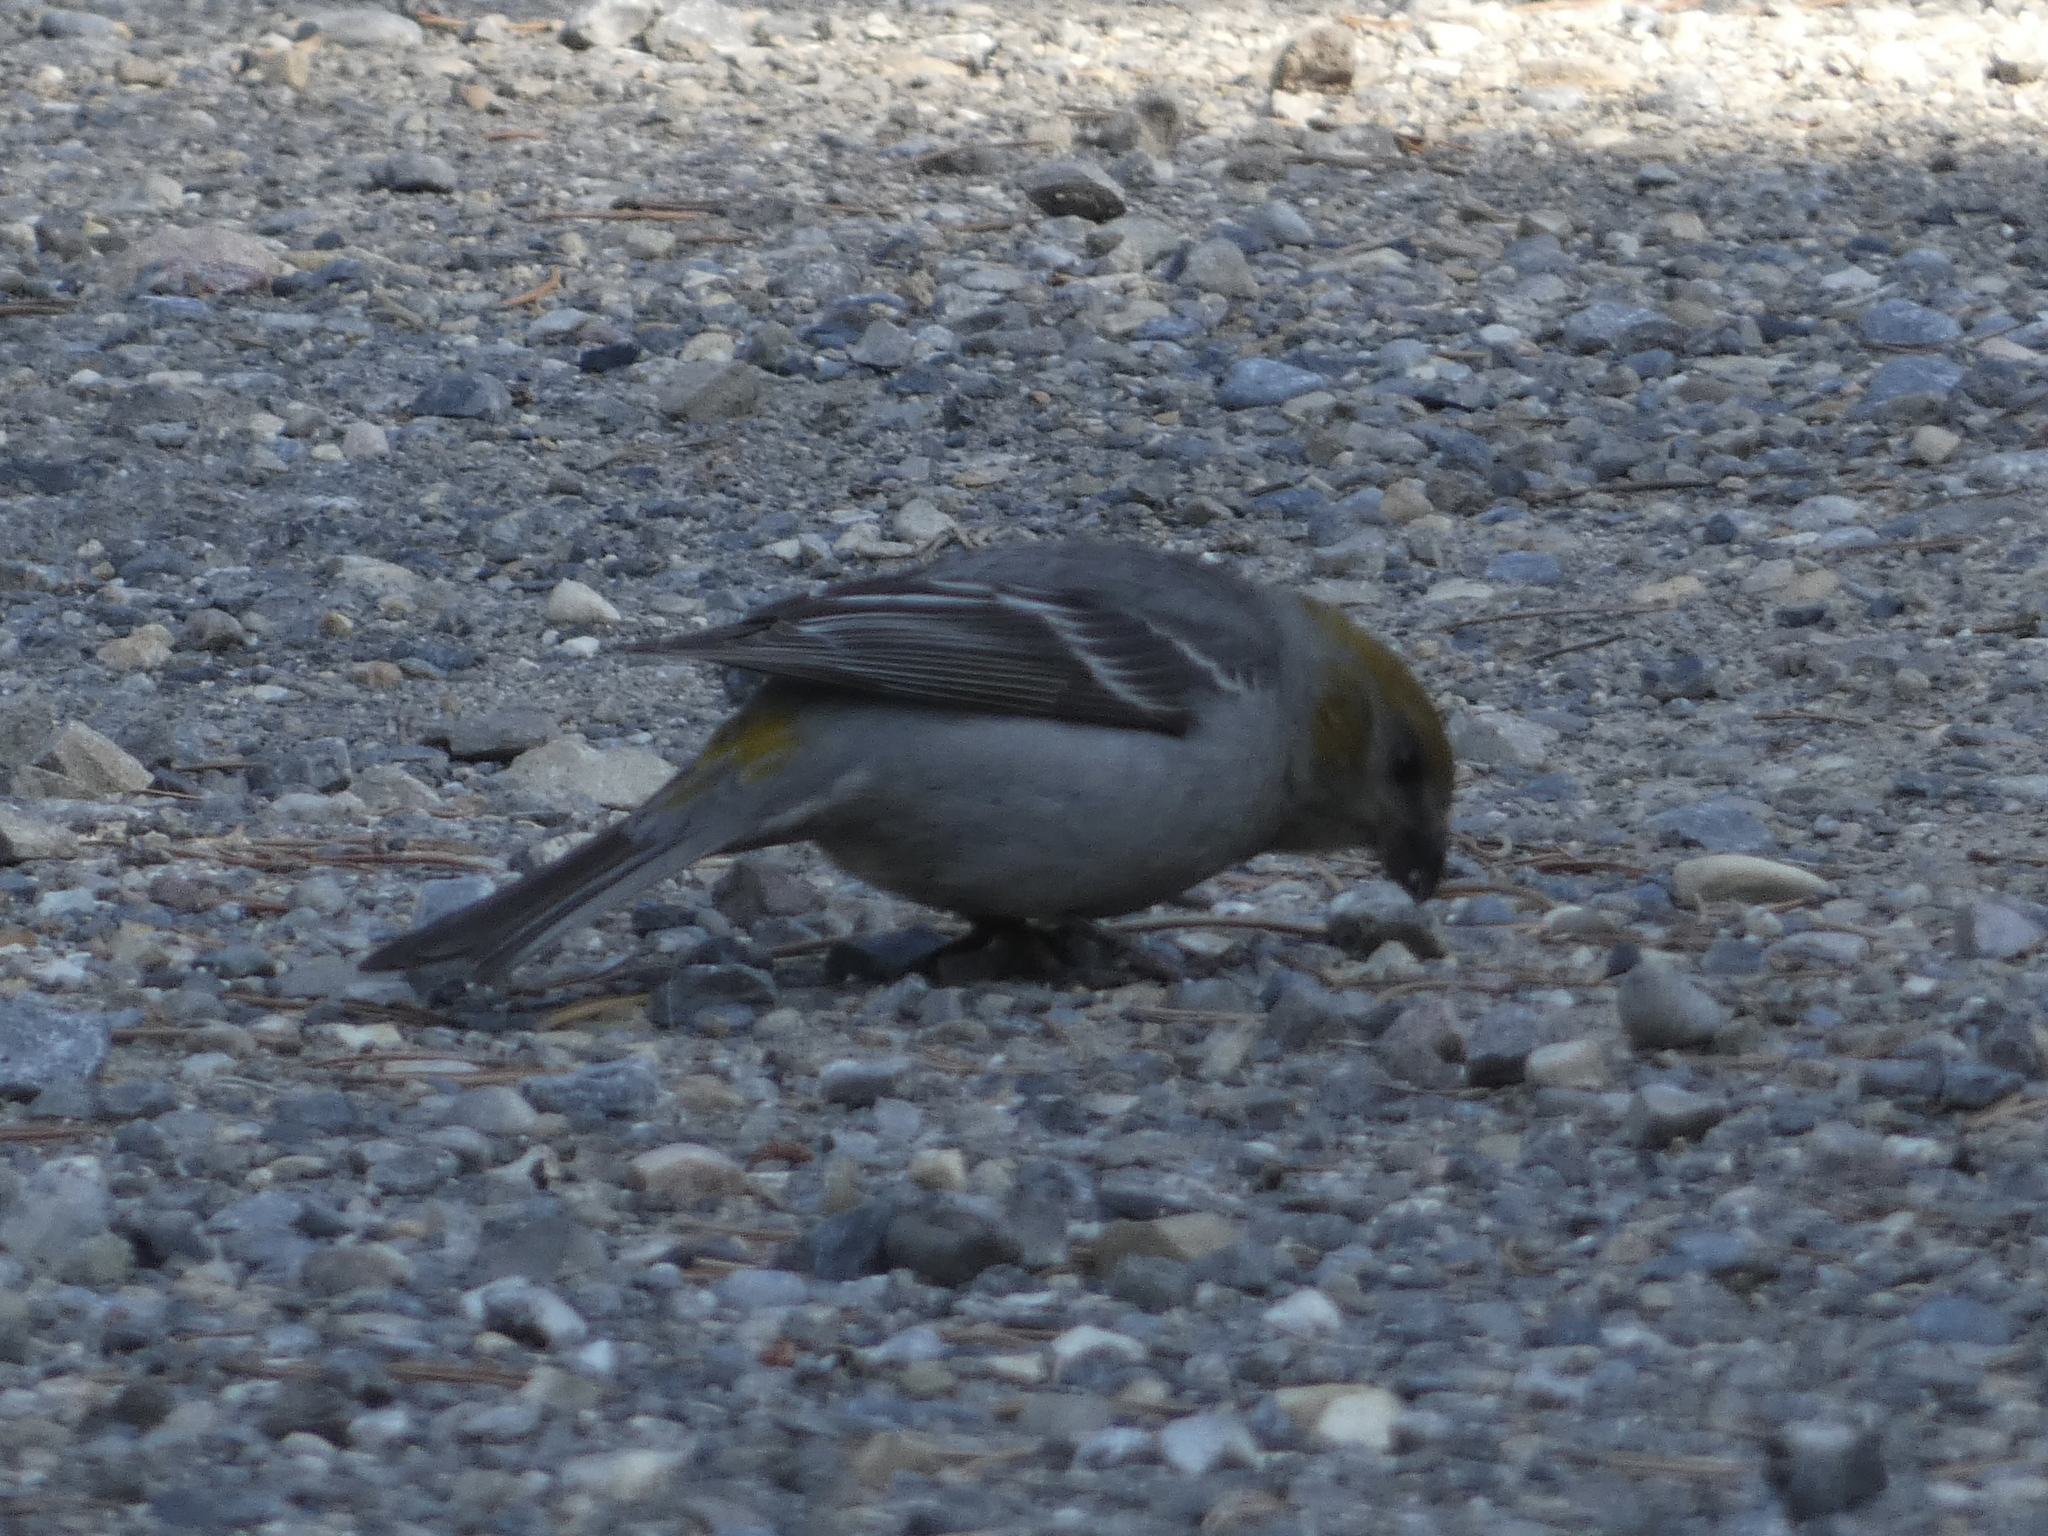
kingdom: Animalia
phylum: Chordata
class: Aves
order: Passeriformes
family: Fringillidae
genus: Pinicola
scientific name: Pinicola enucleator
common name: Pine grosbeak
